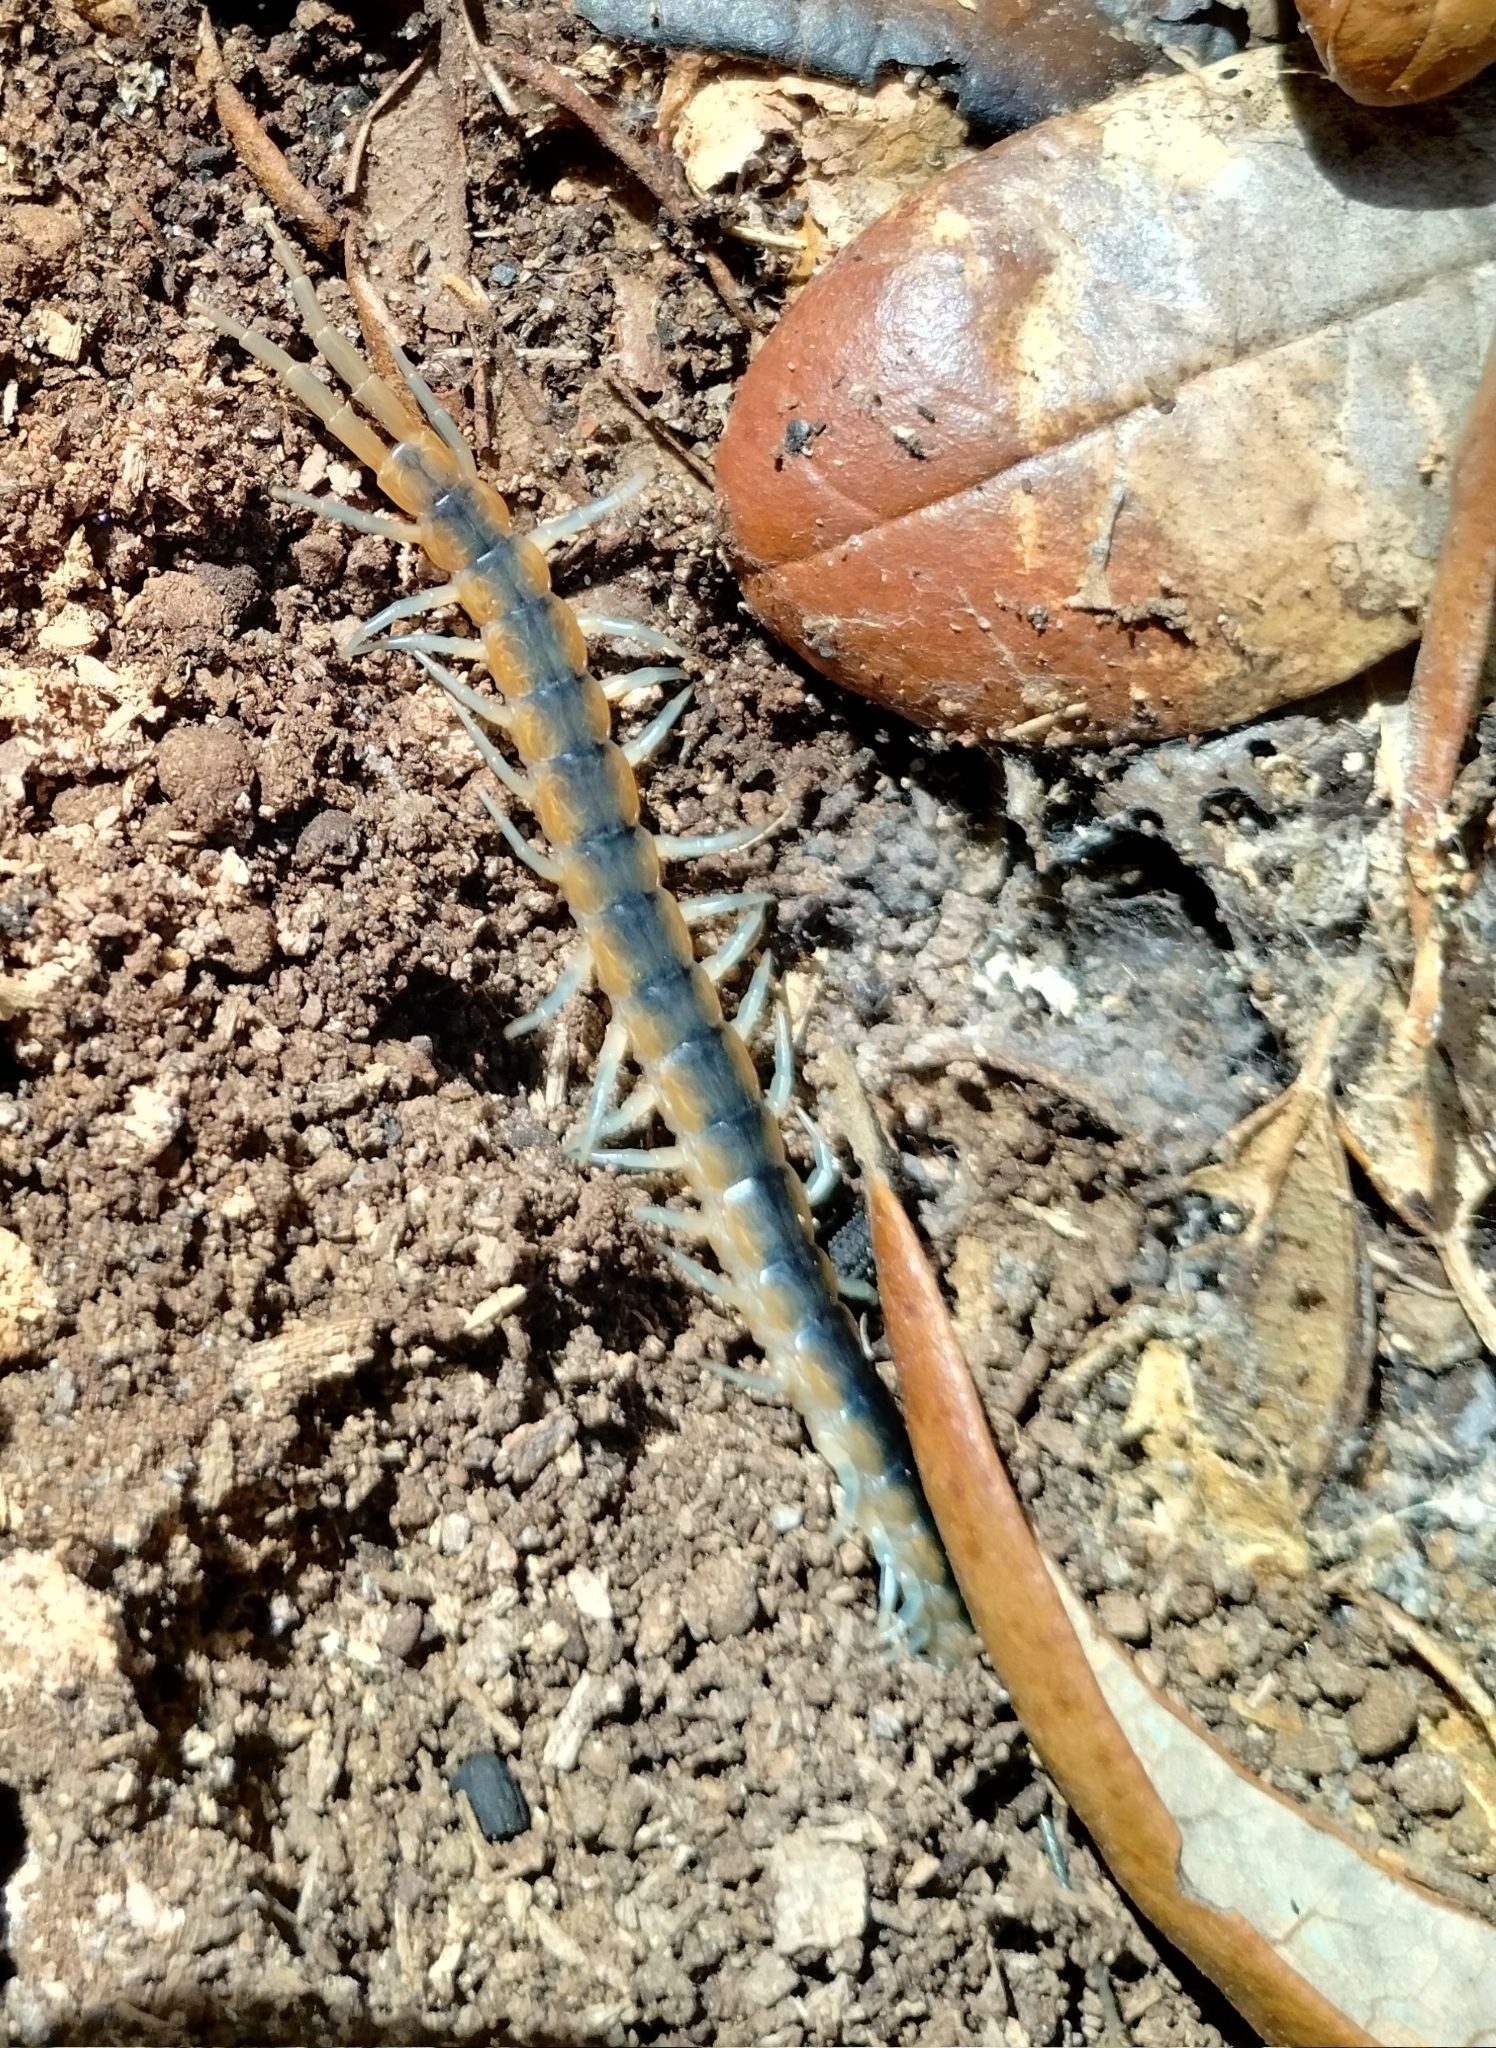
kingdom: Animalia
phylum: Arthropoda
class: Chilopoda
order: Scolopendromorpha
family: Scolopendridae
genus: Scolopendra
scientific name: Scolopendra viridis
